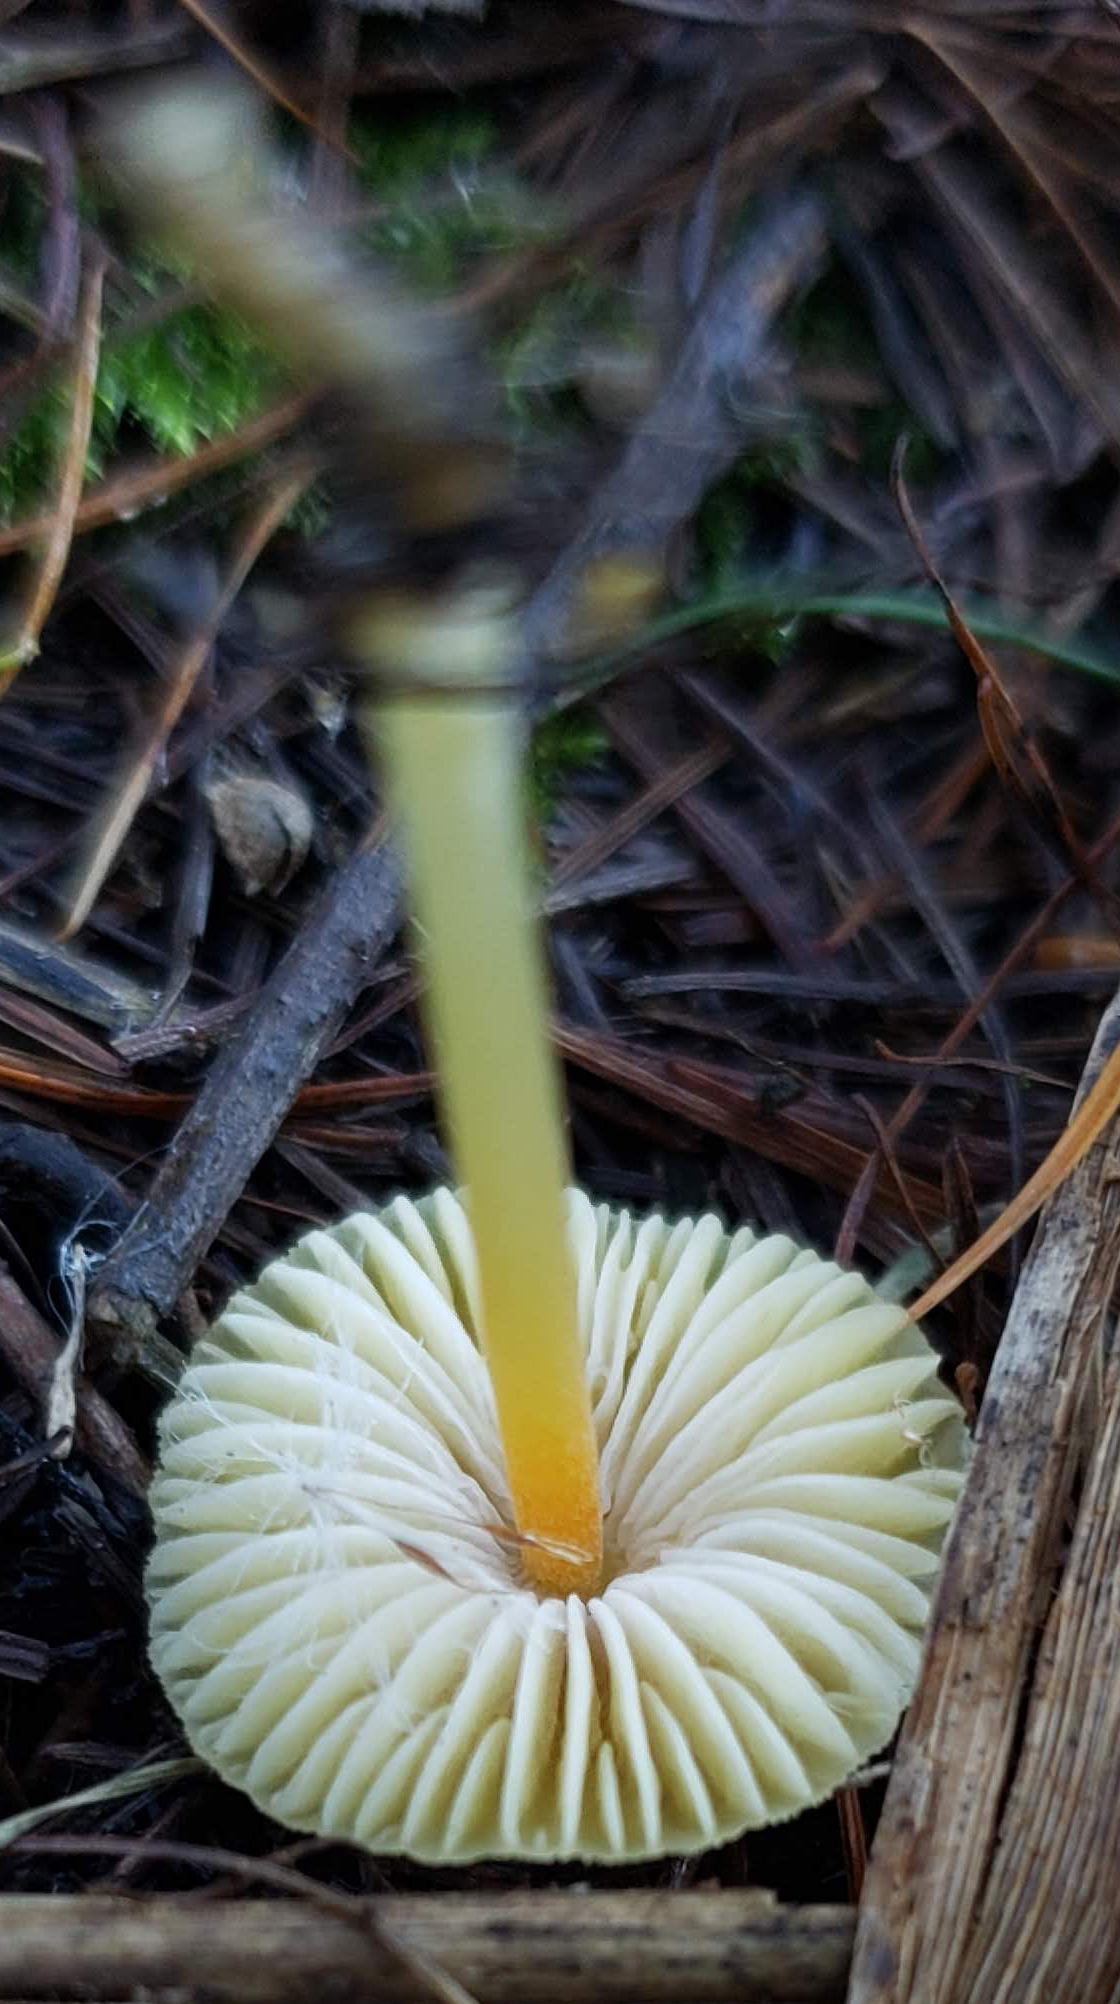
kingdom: Fungi
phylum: Basidiomycota
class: Agaricomycetes
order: Agaricales
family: Mycenaceae
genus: Mycena
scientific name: Mycena crocea
